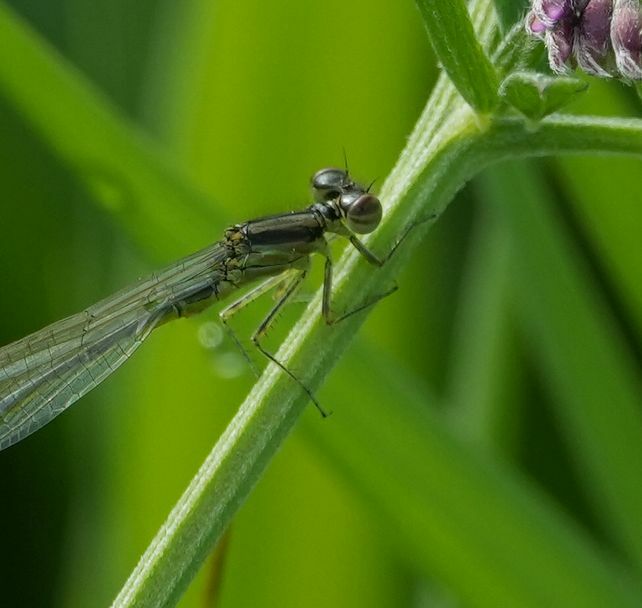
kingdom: Animalia
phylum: Arthropoda
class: Insecta
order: Odonata
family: Coenagrionidae
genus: Ischnura
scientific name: Ischnura verticalis
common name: Eastern forktail
